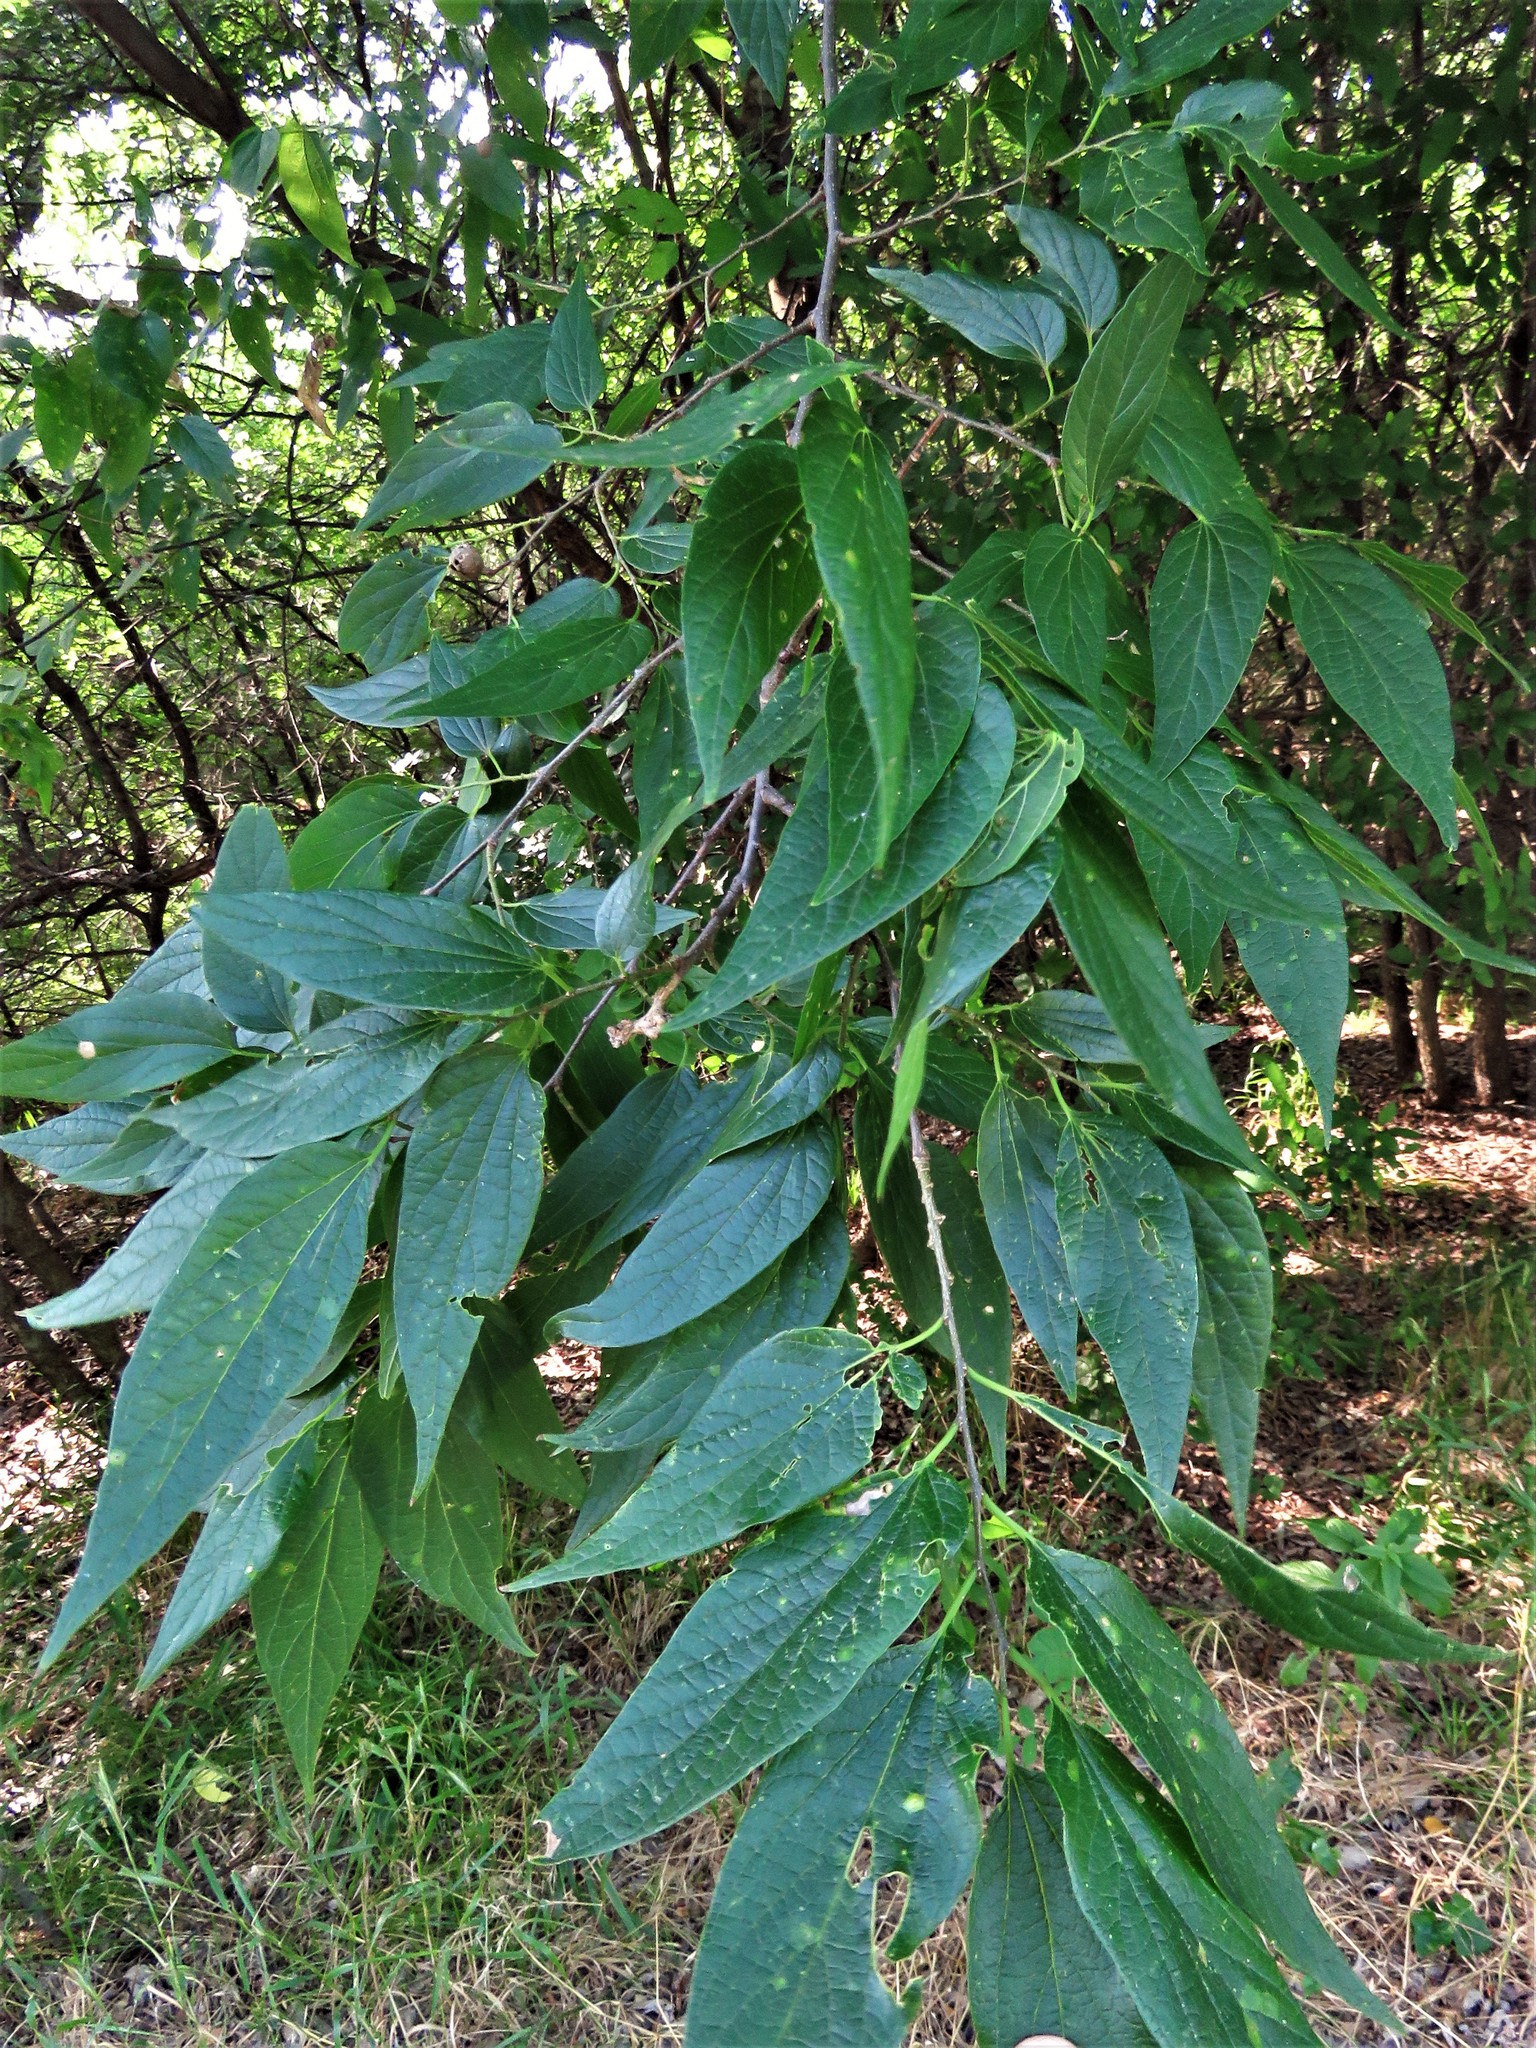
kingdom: Plantae
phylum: Tracheophyta
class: Magnoliopsida
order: Rosales
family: Cannabaceae
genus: Celtis
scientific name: Celtis laevigata
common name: Sugarberry
